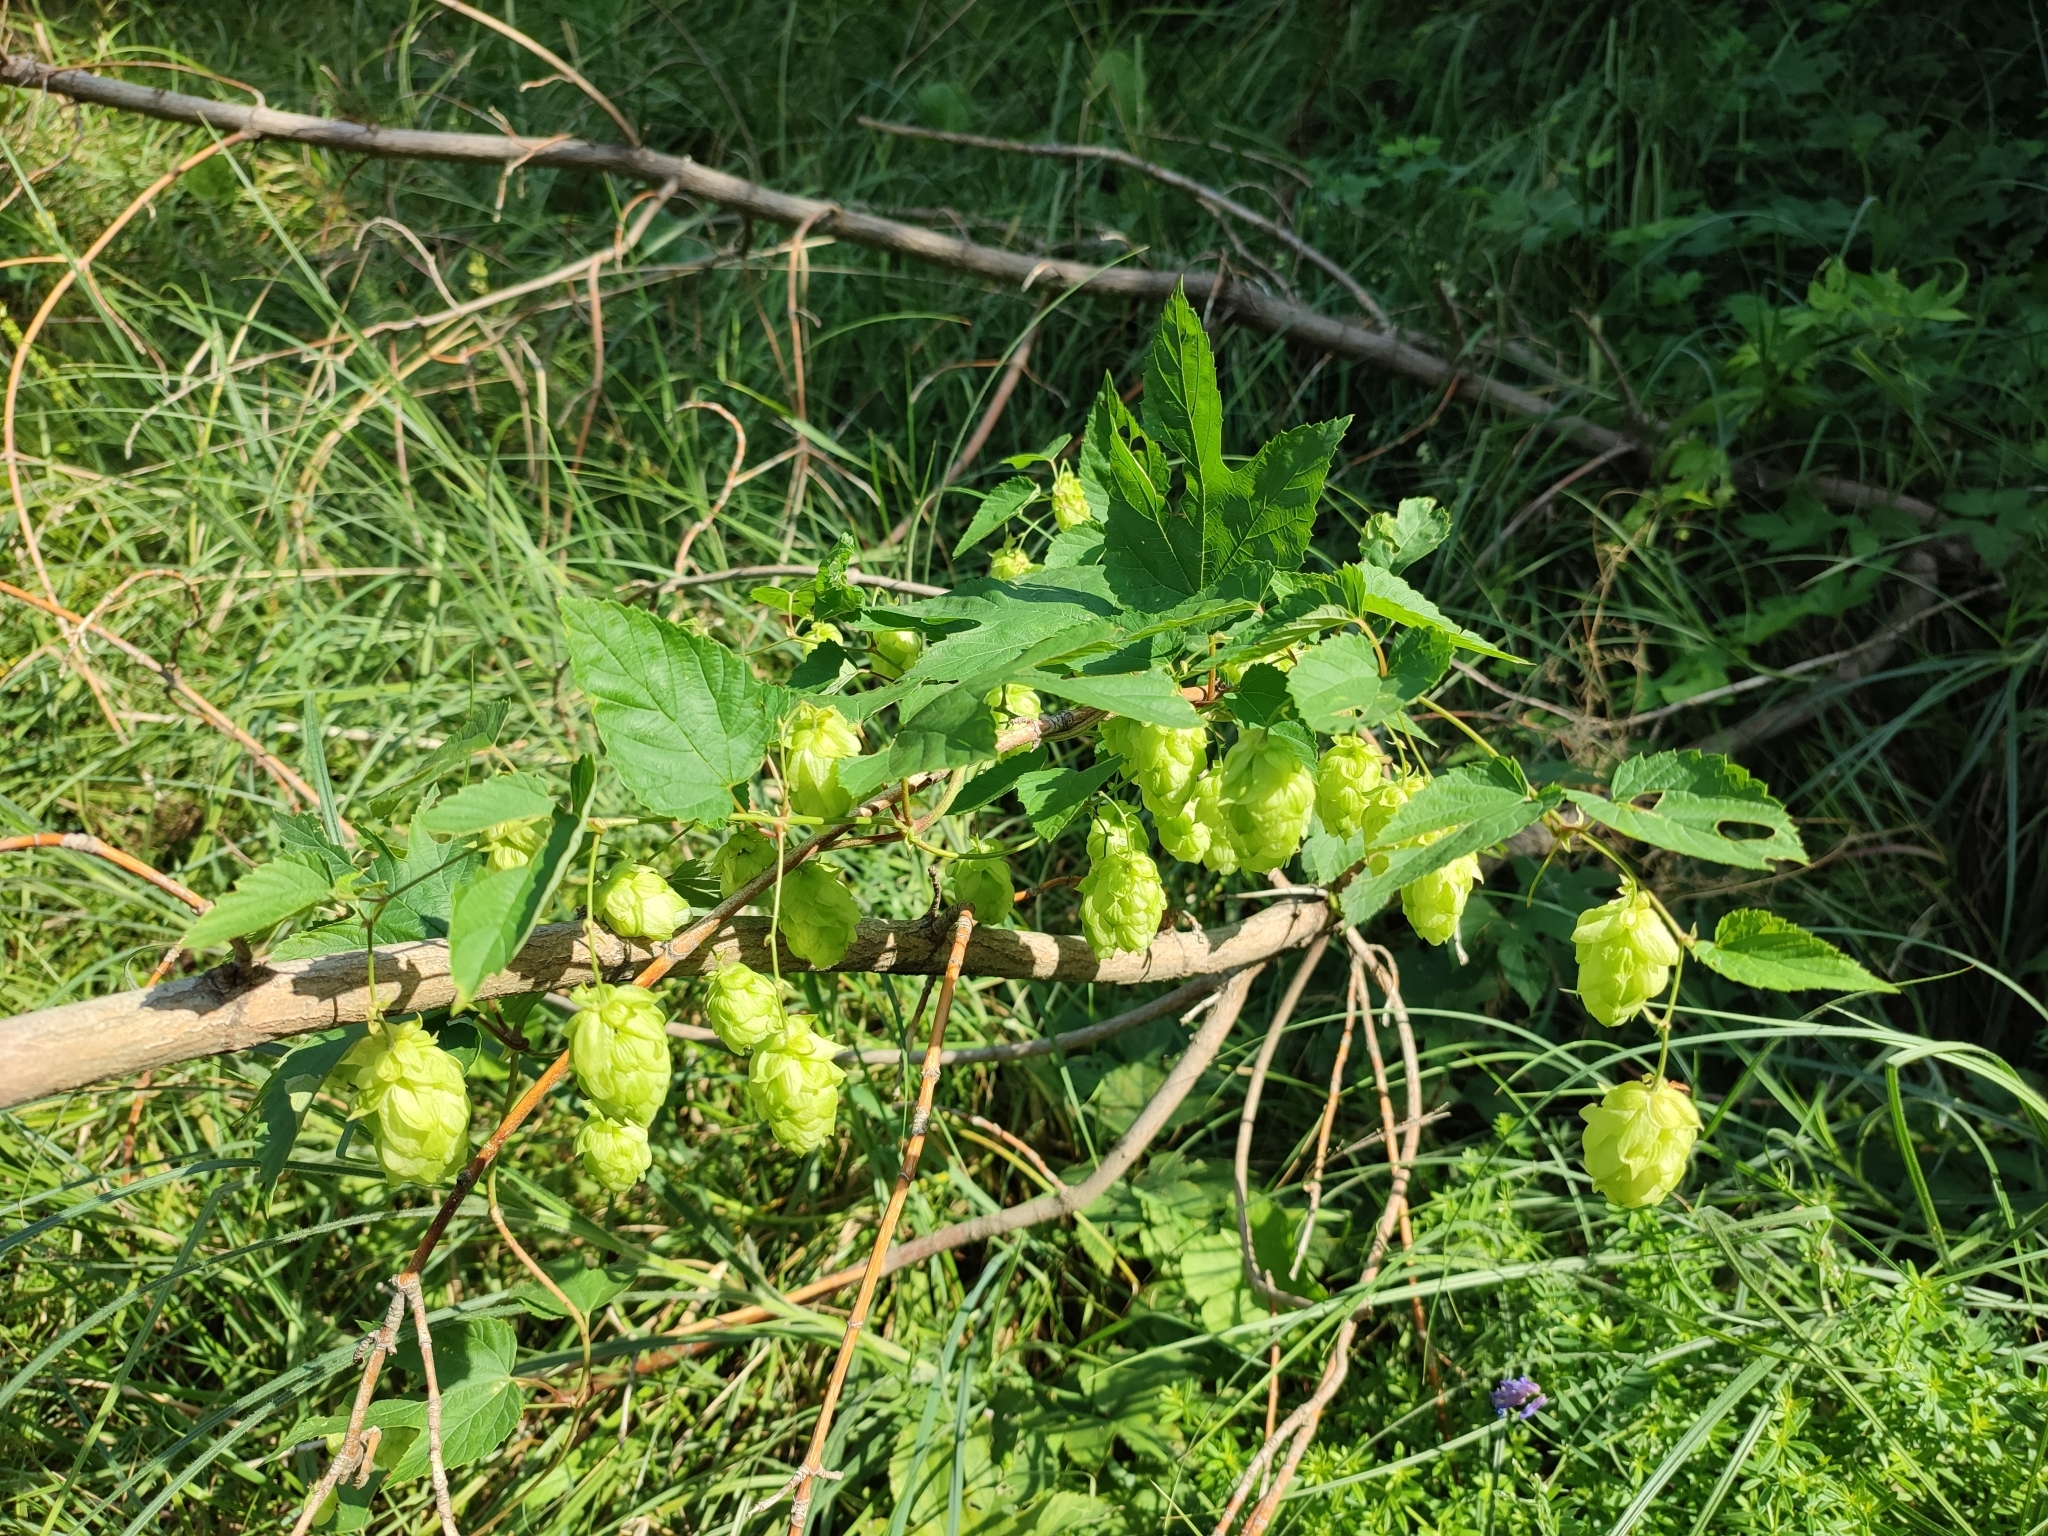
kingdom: Plantae
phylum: Tracheophyta
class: Magnoliopsida
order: Rosales
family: Cannabaceae
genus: Humulus
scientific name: Humulus lupulus
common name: Hop
